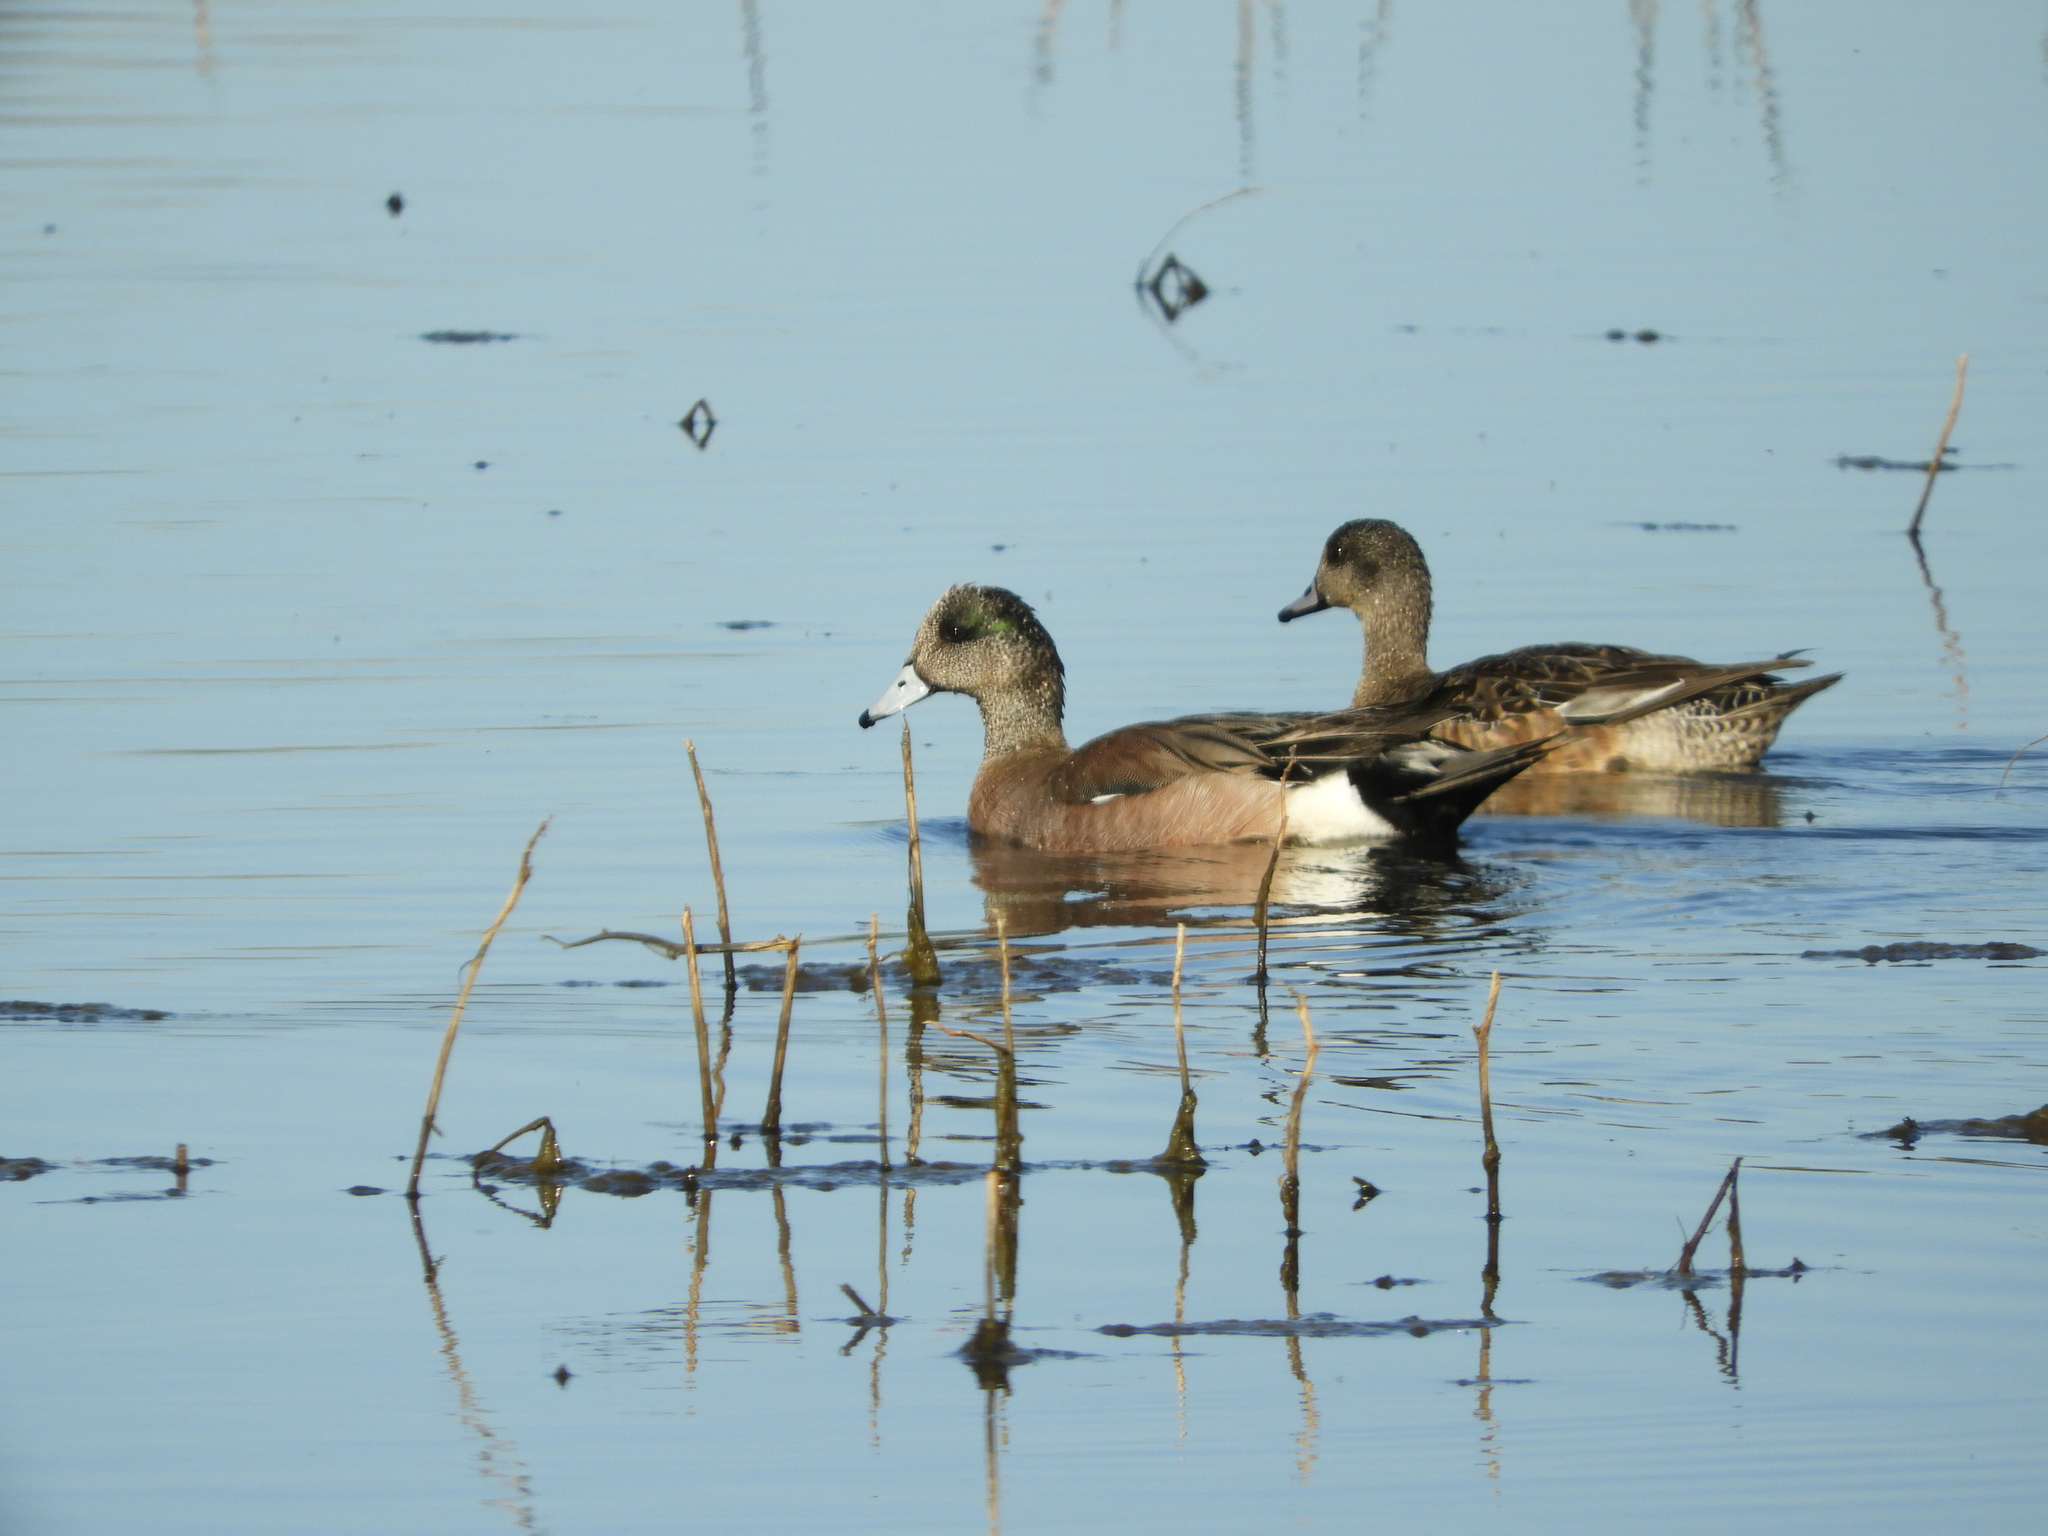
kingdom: Animalia
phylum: Chordata
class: Aves
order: Anseriformes
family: Anatidae
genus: Mareca
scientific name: Mareca americana
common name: American wigeon
